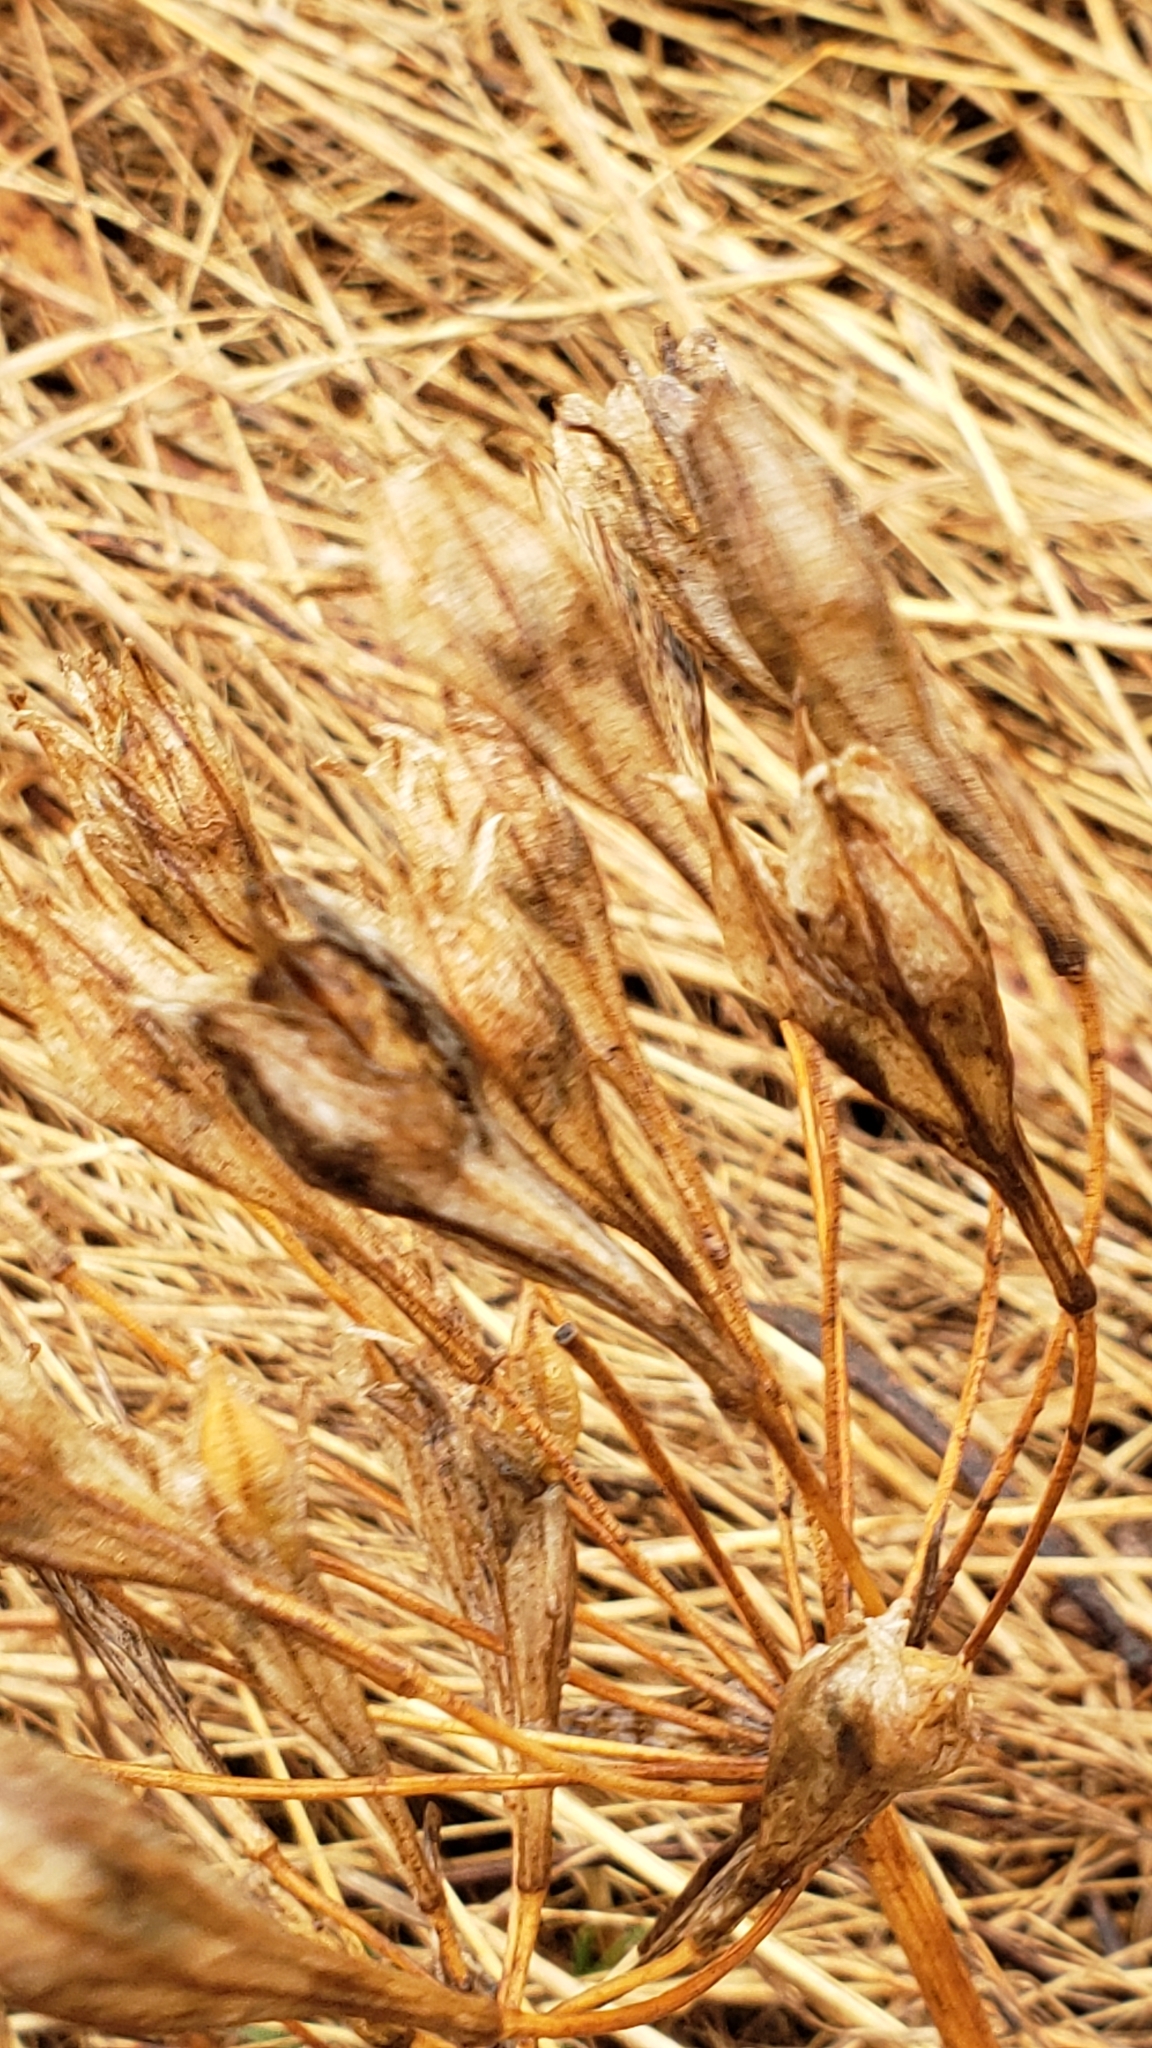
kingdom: Plantae
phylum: Tracheophyta
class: Liliopsida
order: Asparagales
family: Asparagaceae
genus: Triteleia
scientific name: Triteleia laxa
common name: Triplet-lily
